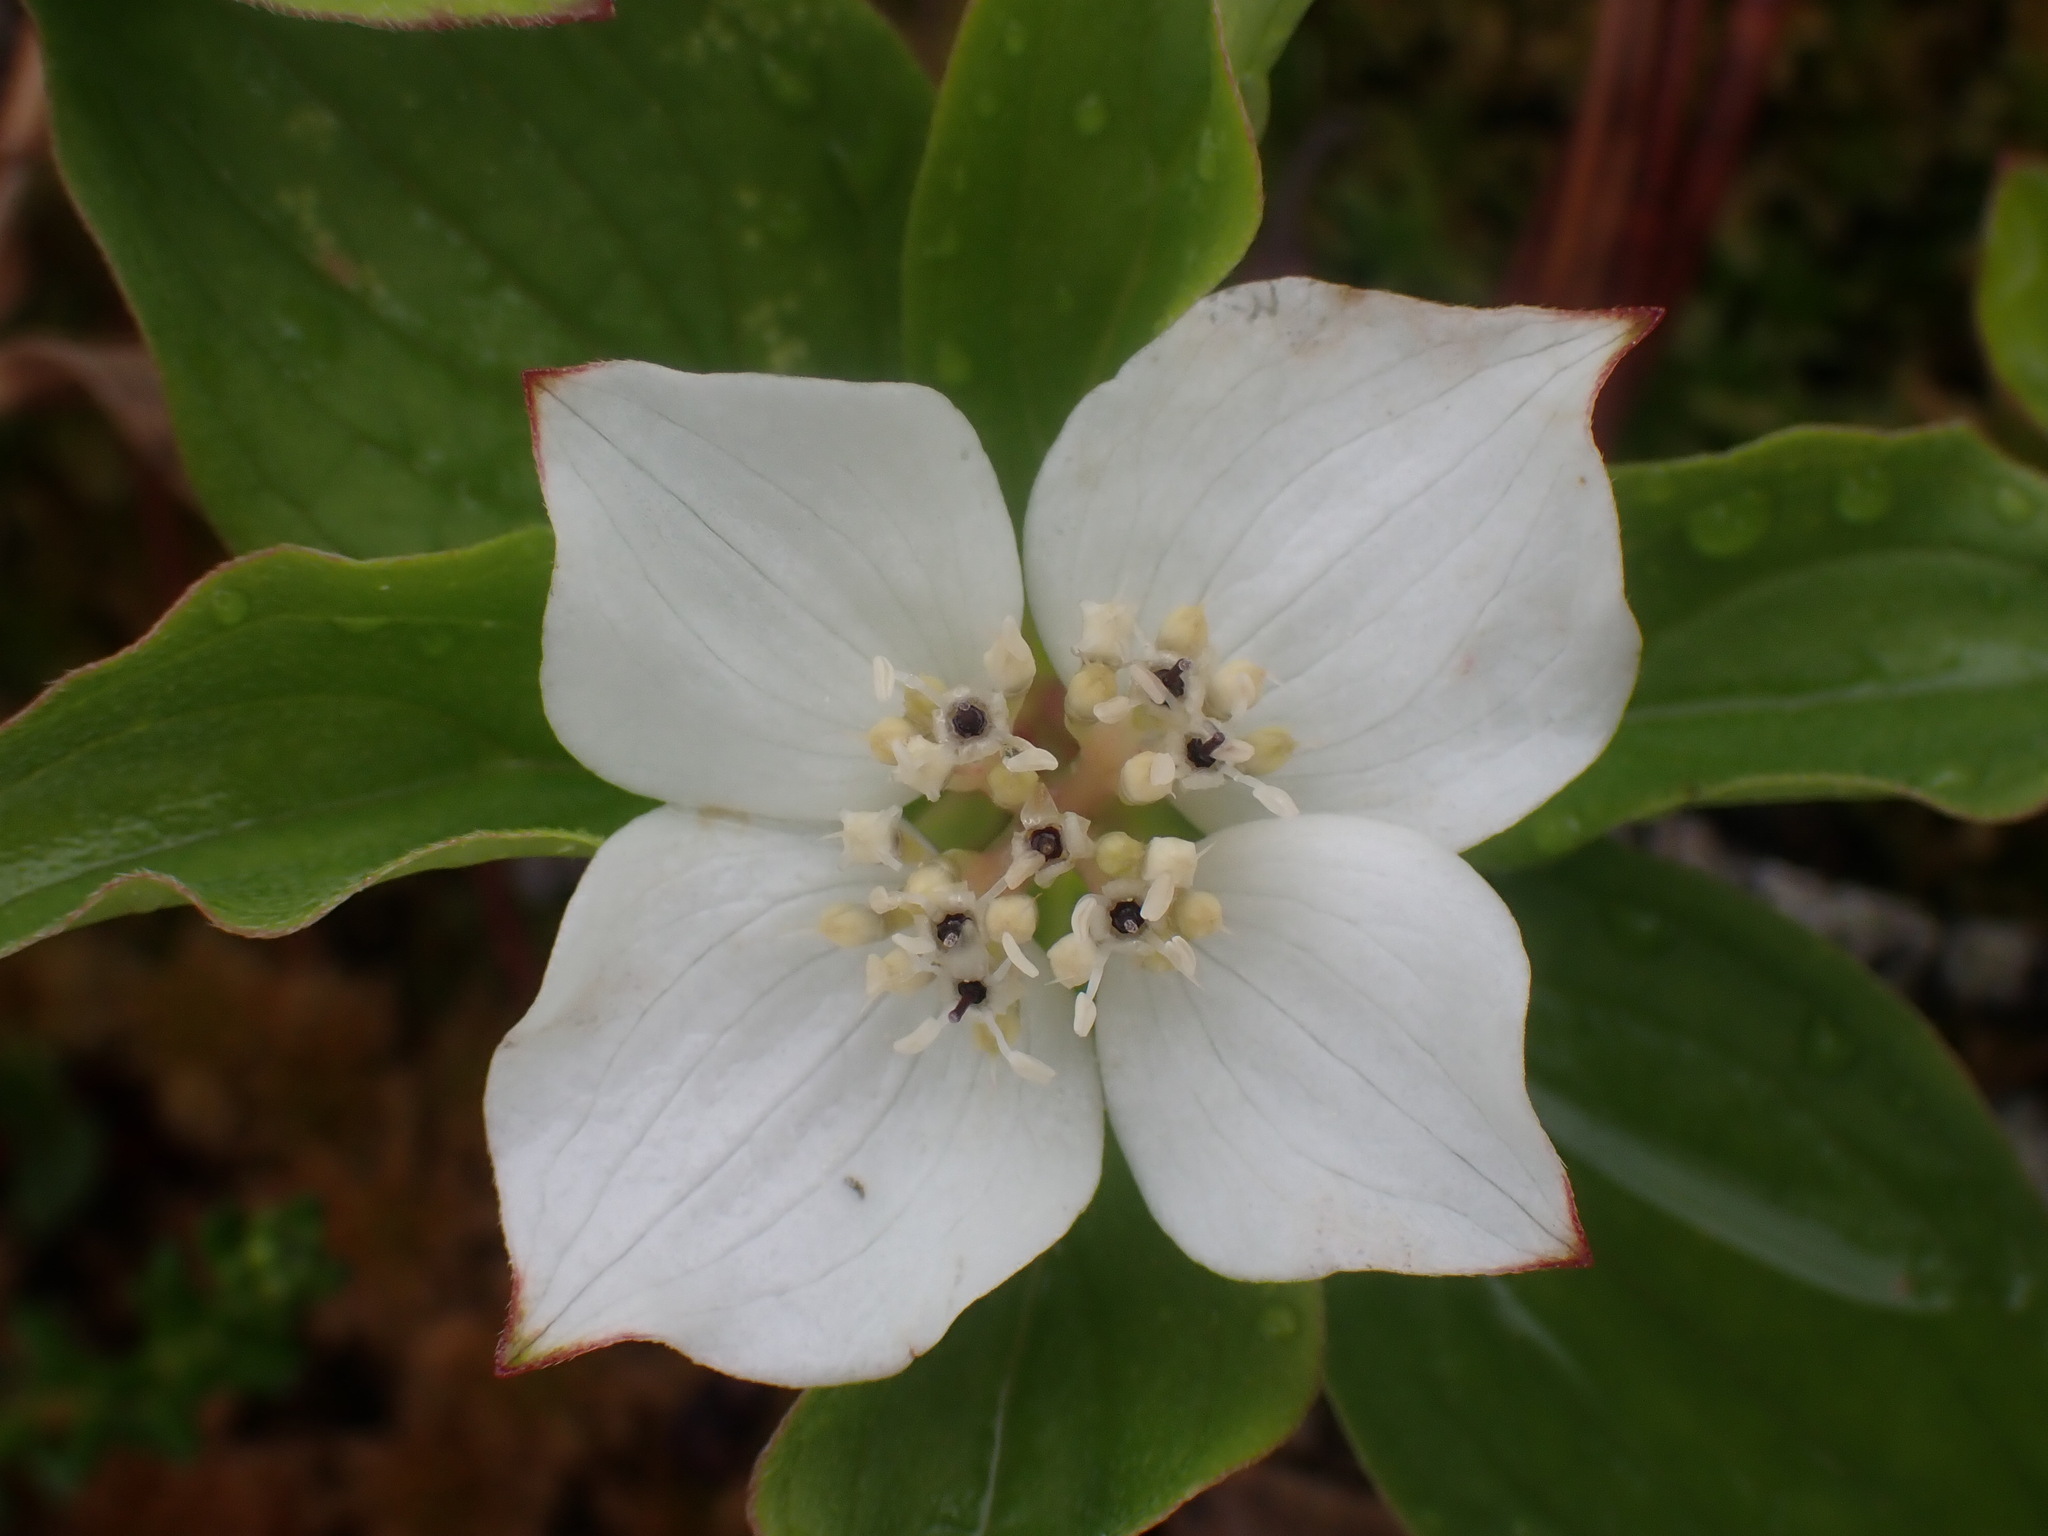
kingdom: Plantae
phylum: Tracheophyta
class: Magnoliopsida
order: Cornales
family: Cornaceae
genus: Cornus
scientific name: Cornus canadensis
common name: Creeping dogwood
